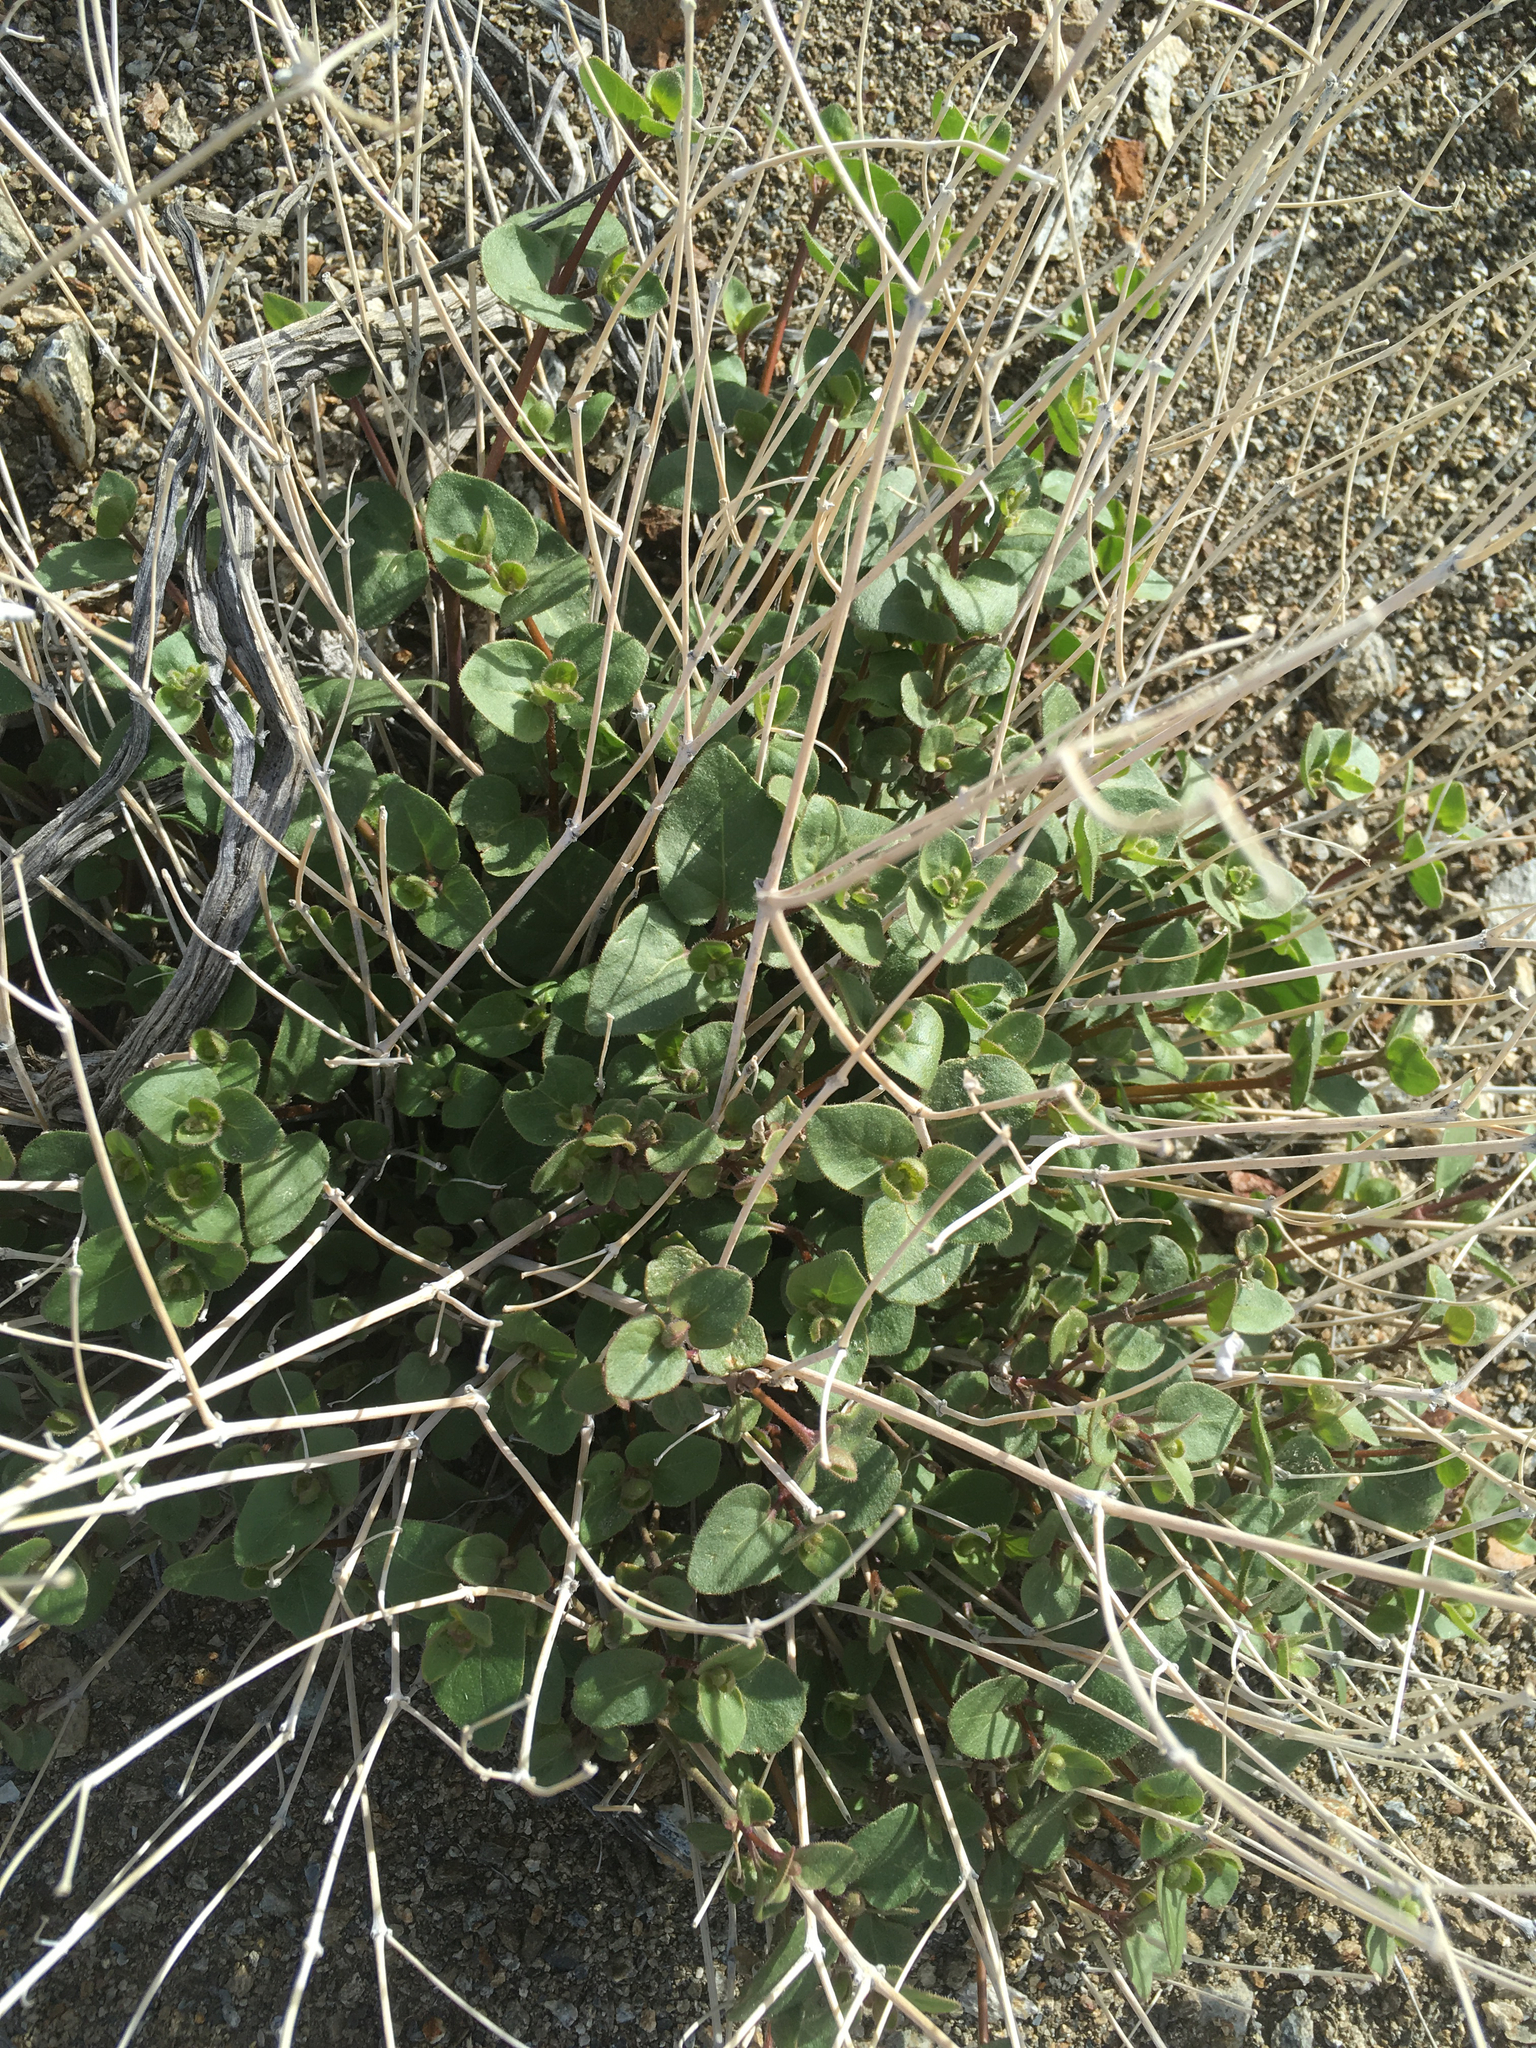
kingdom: Plantae
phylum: Tracheophyta
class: Magnoliopsida
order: Caryophyllales
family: Nyctaginaceae
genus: Mirabilis
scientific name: Mirabilis laevis
